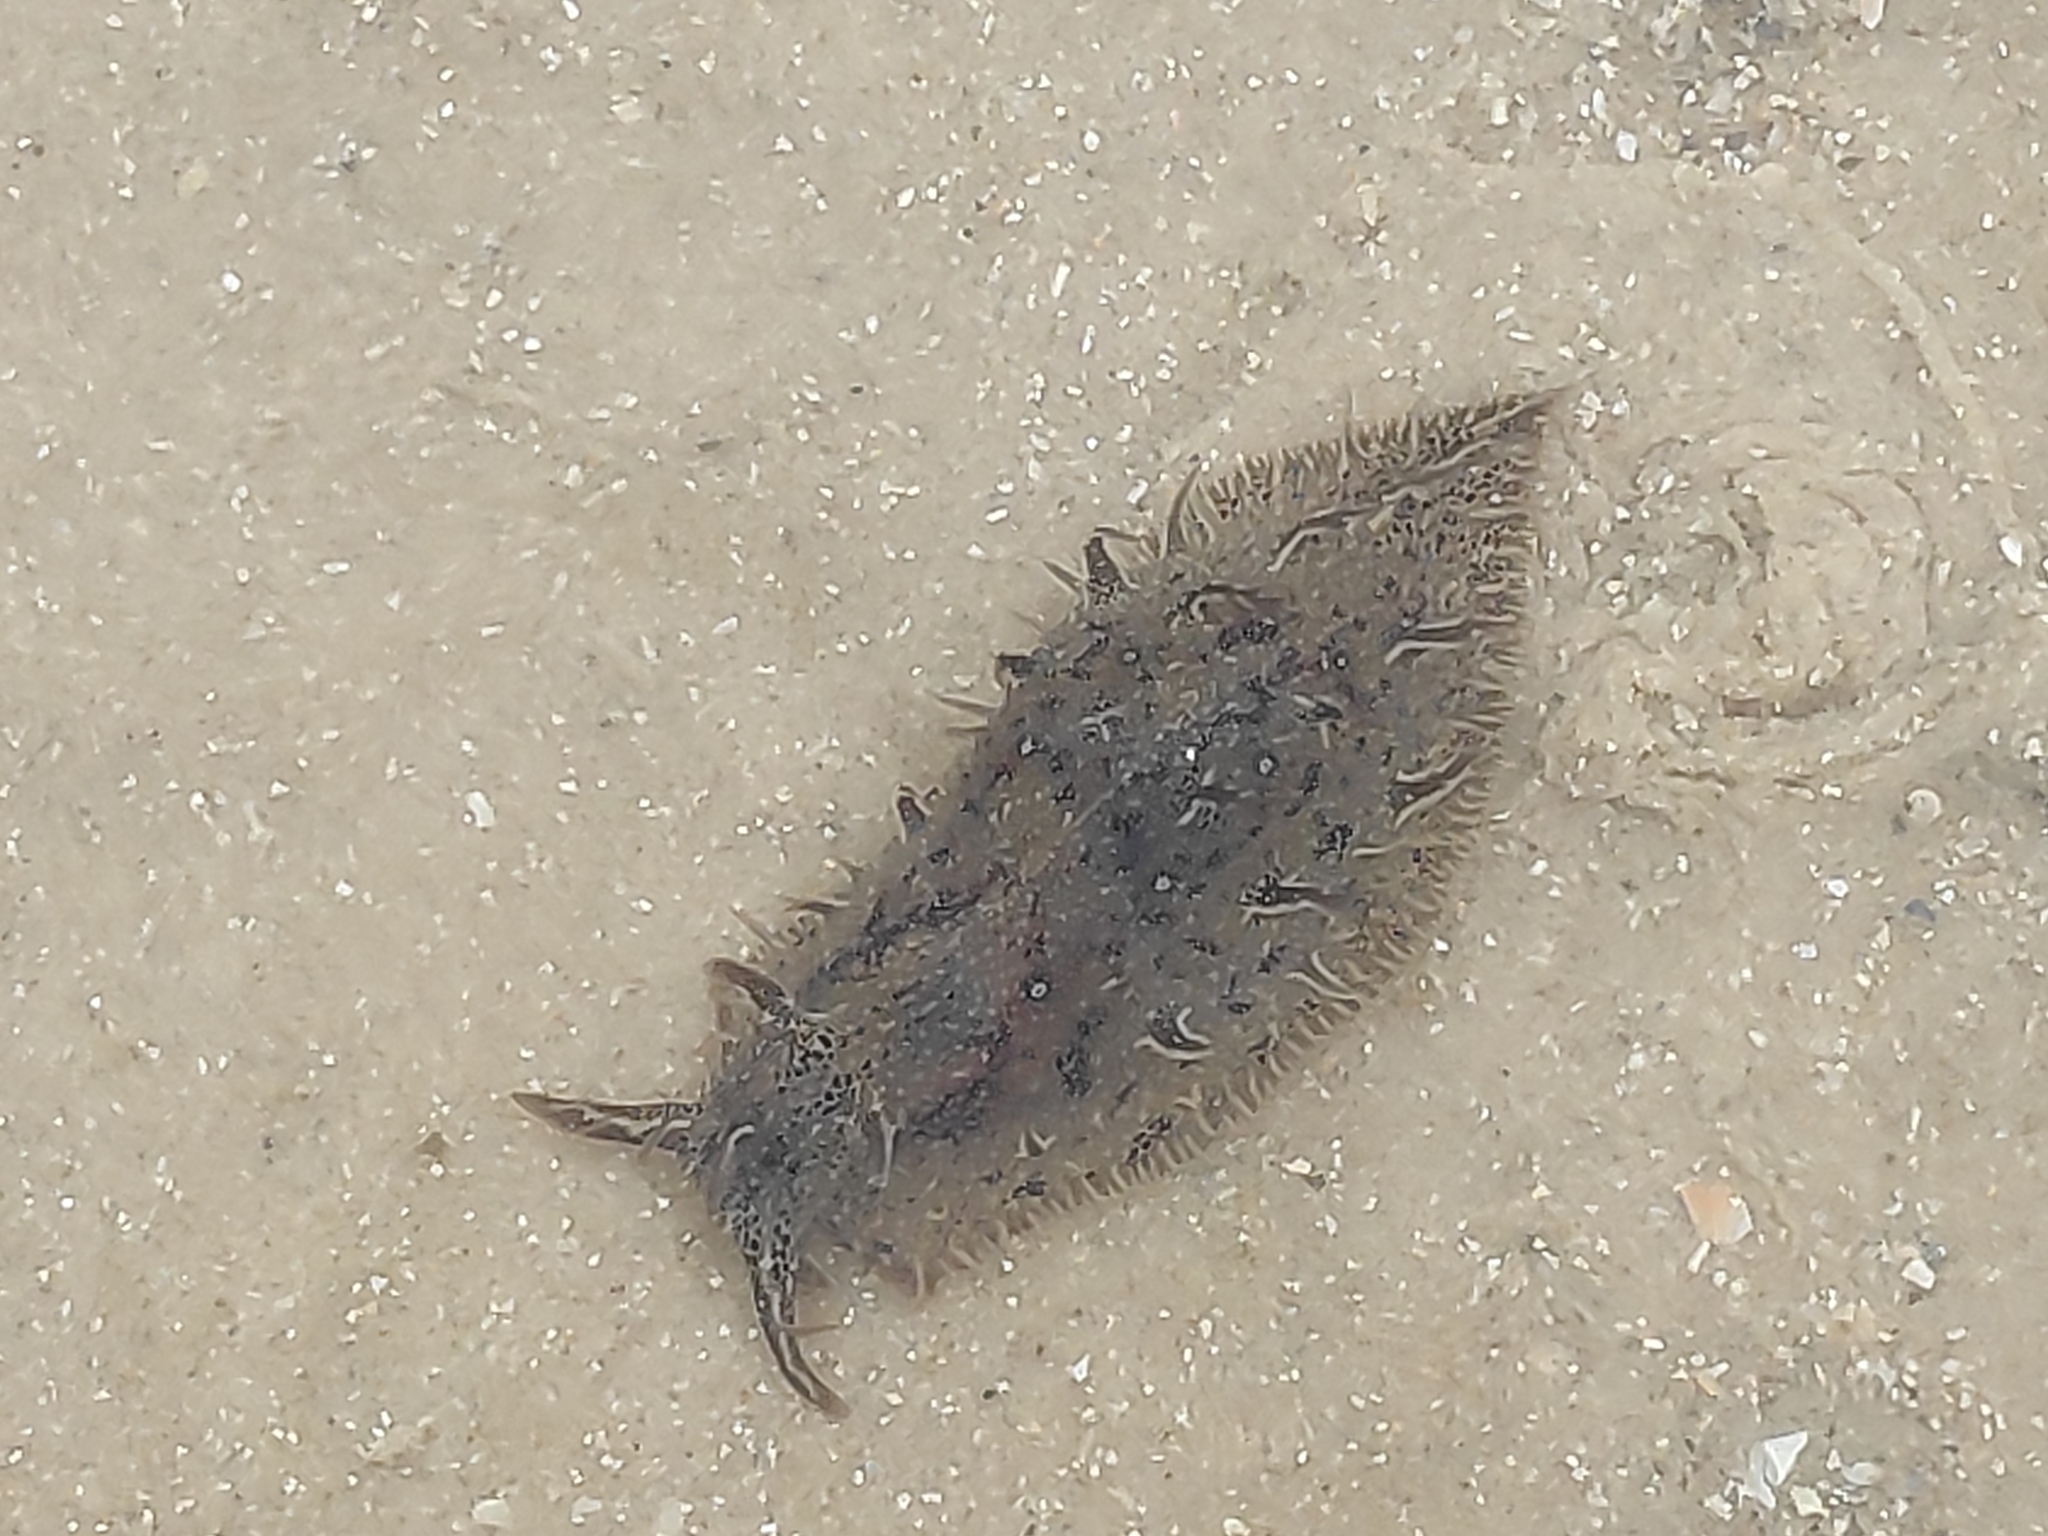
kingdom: Animalia
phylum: Mollusca
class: Gastropoda
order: Aplysiida
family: Aplysiidae
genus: Bursatella
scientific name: Bursatella leachii
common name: Shaggy sea hare
